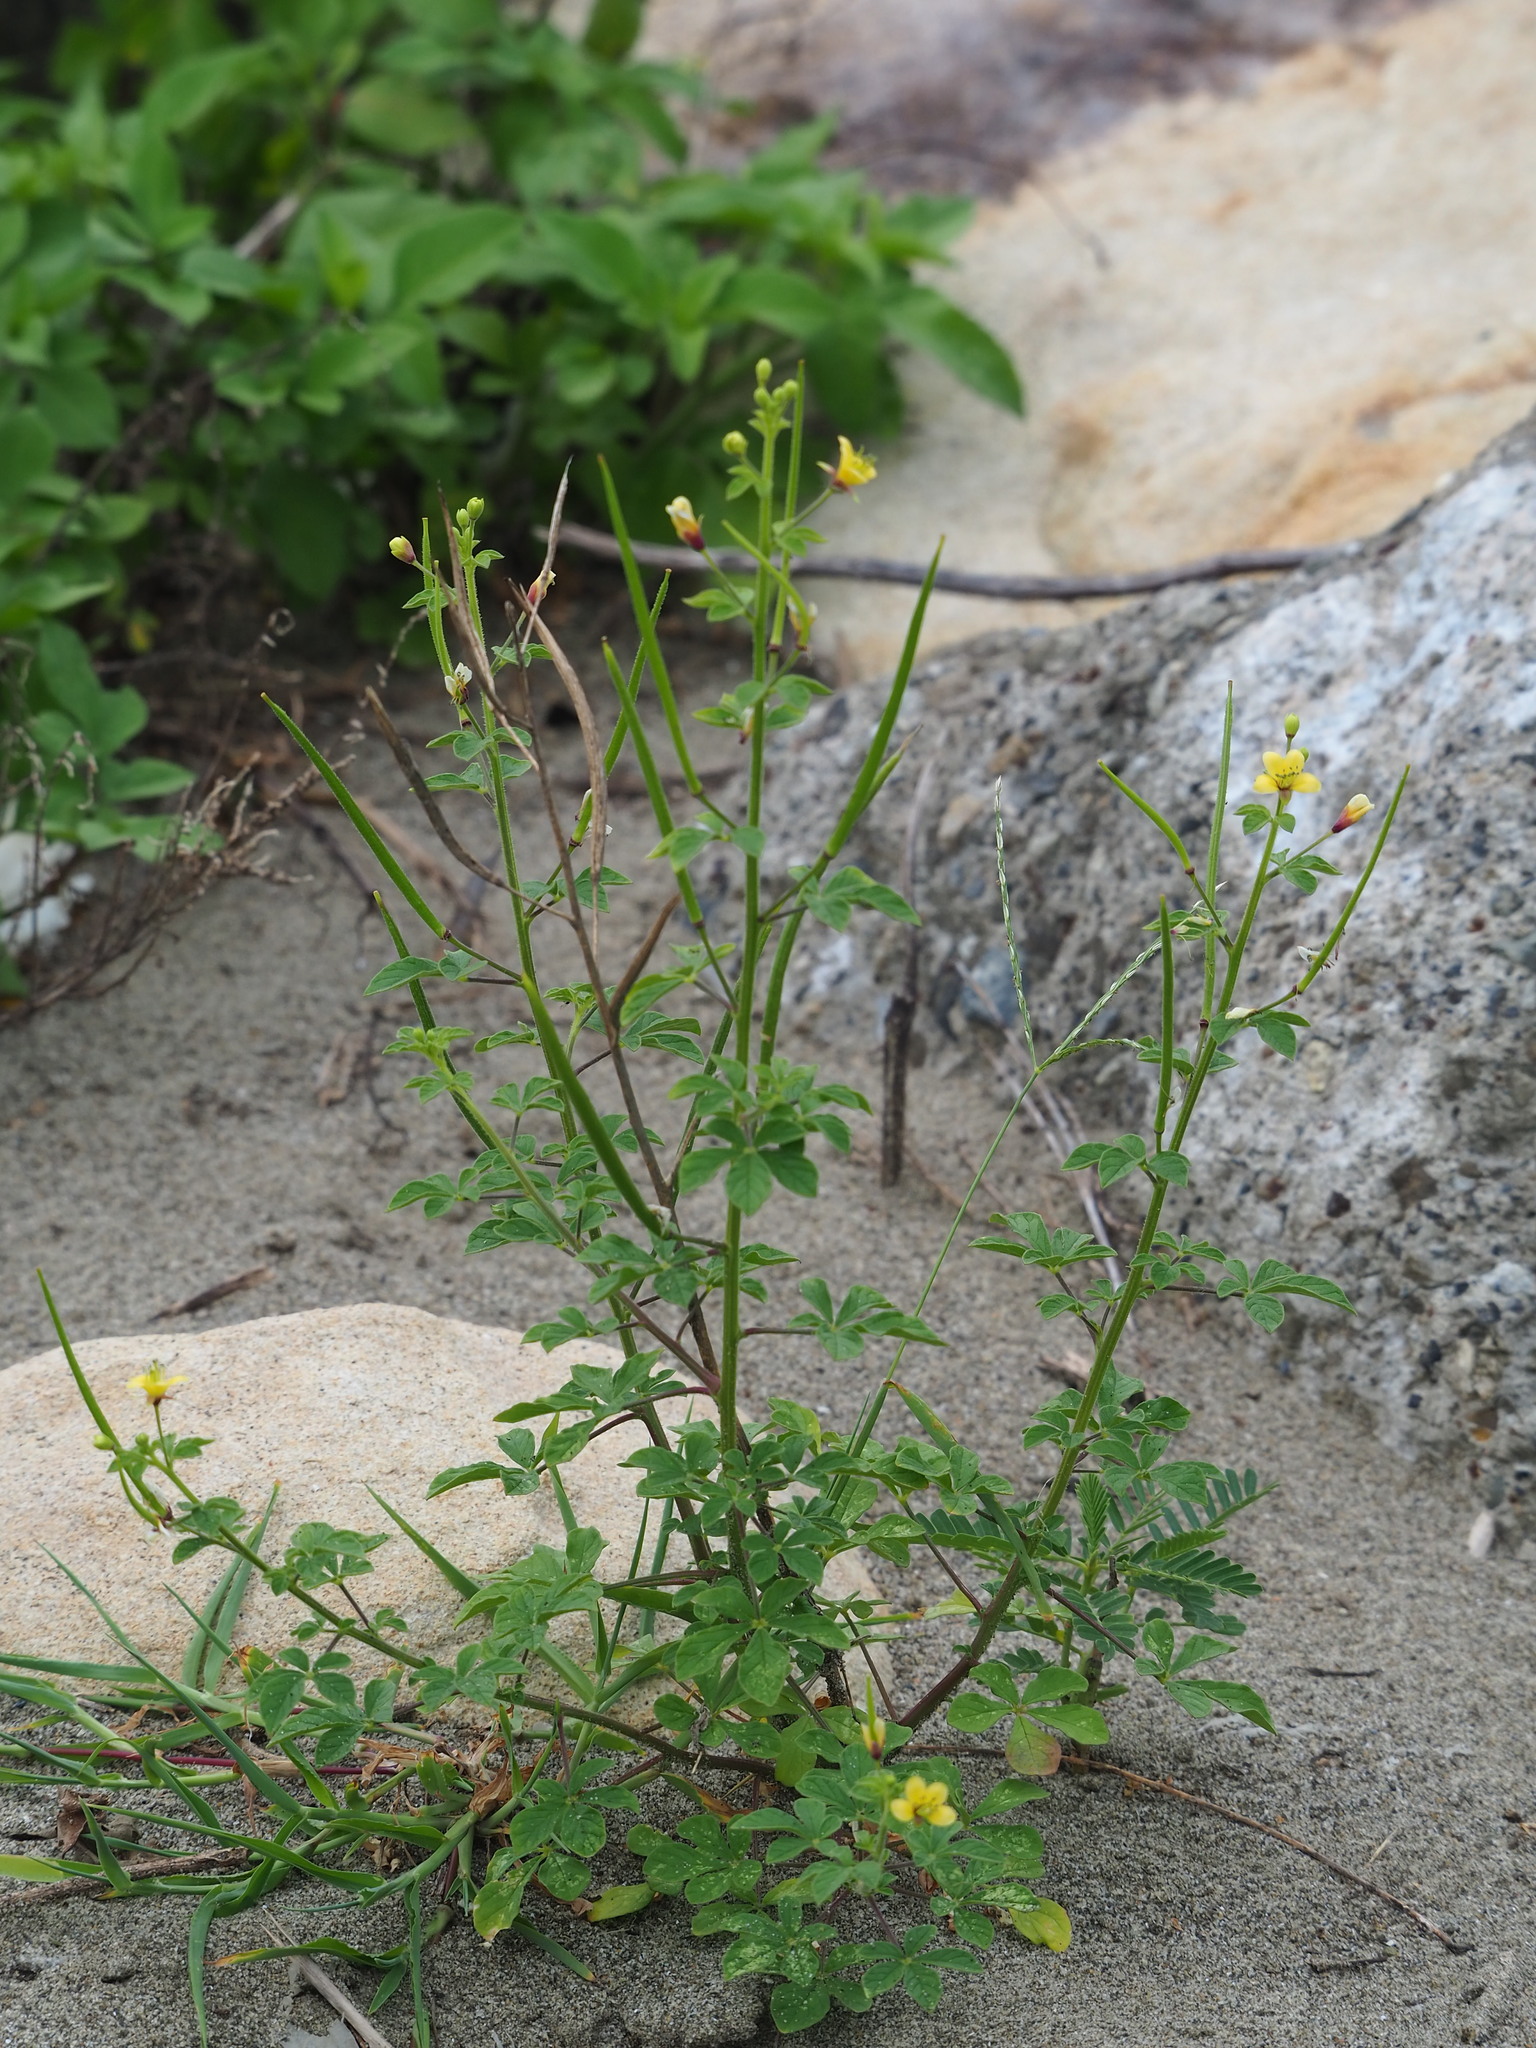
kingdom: Plantae
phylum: Tracheophyta
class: Magnoliopsida
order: Brassicales
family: Cleomaceae
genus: Arivela
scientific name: Arivela viscosa
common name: Asian spiderflower
